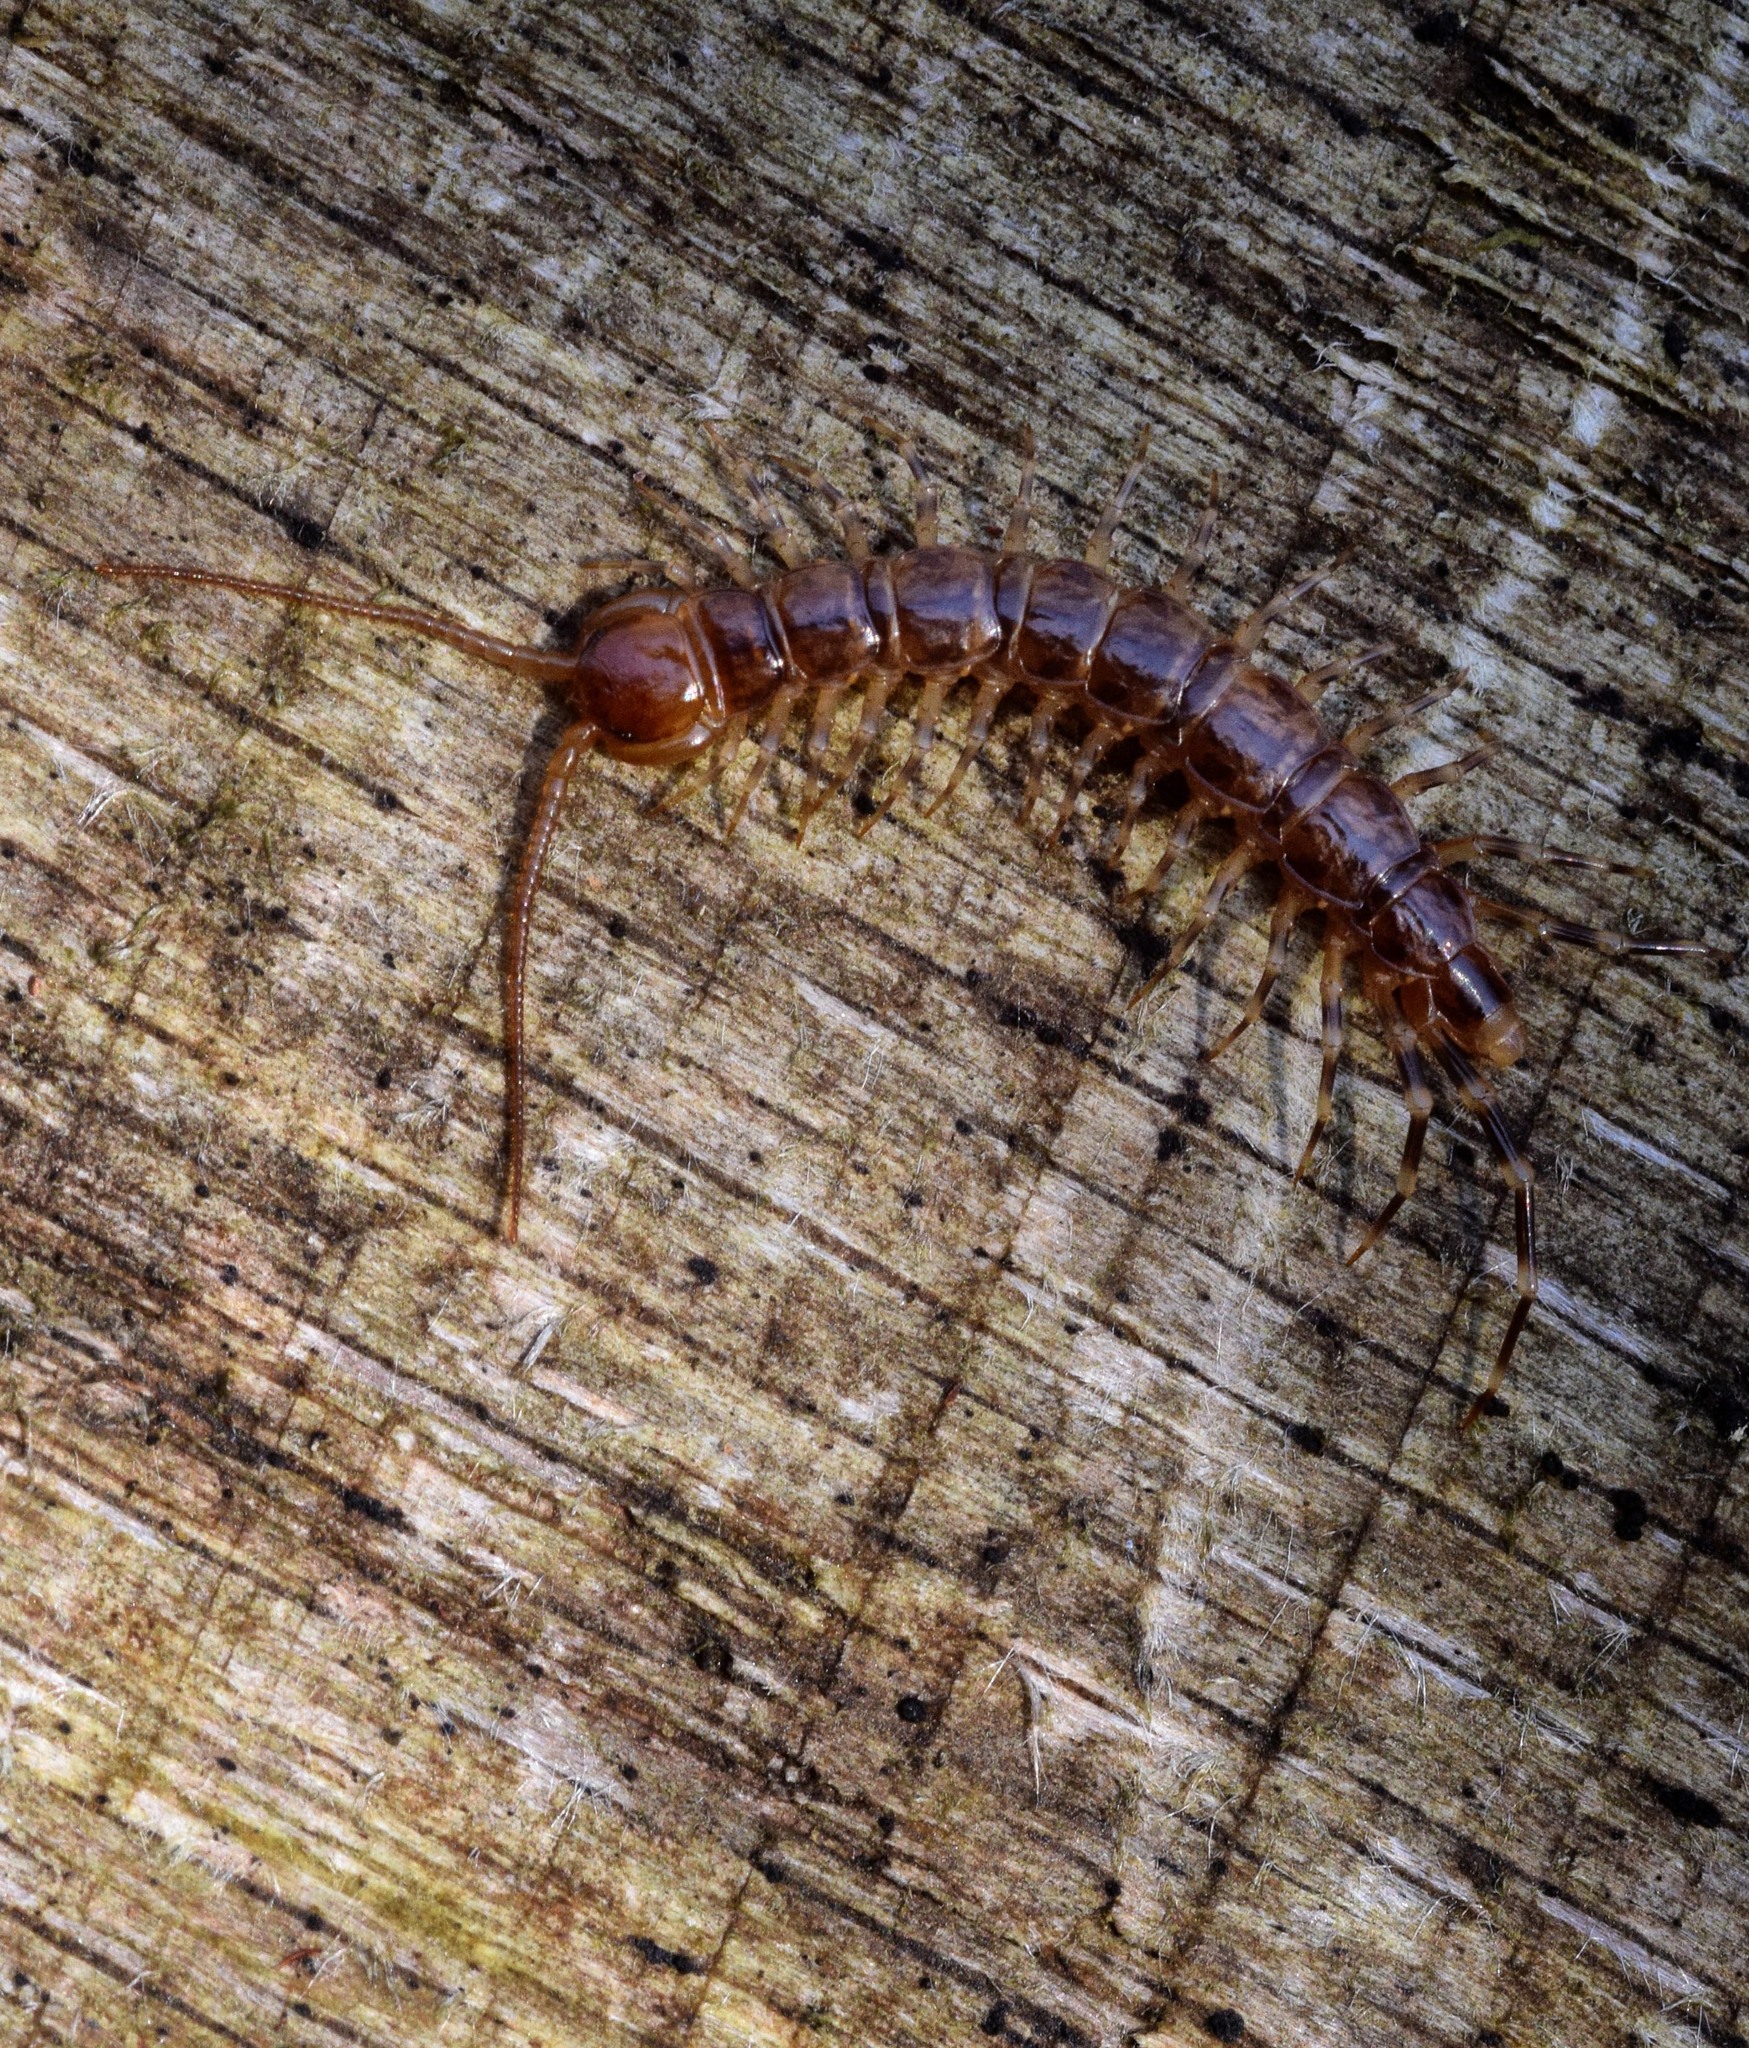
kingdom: Animalia
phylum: Arthropoda
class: Chilopoda
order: Lithobiomorpha
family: Lithobiidae
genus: Lithobius
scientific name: Lithobius variegatus
